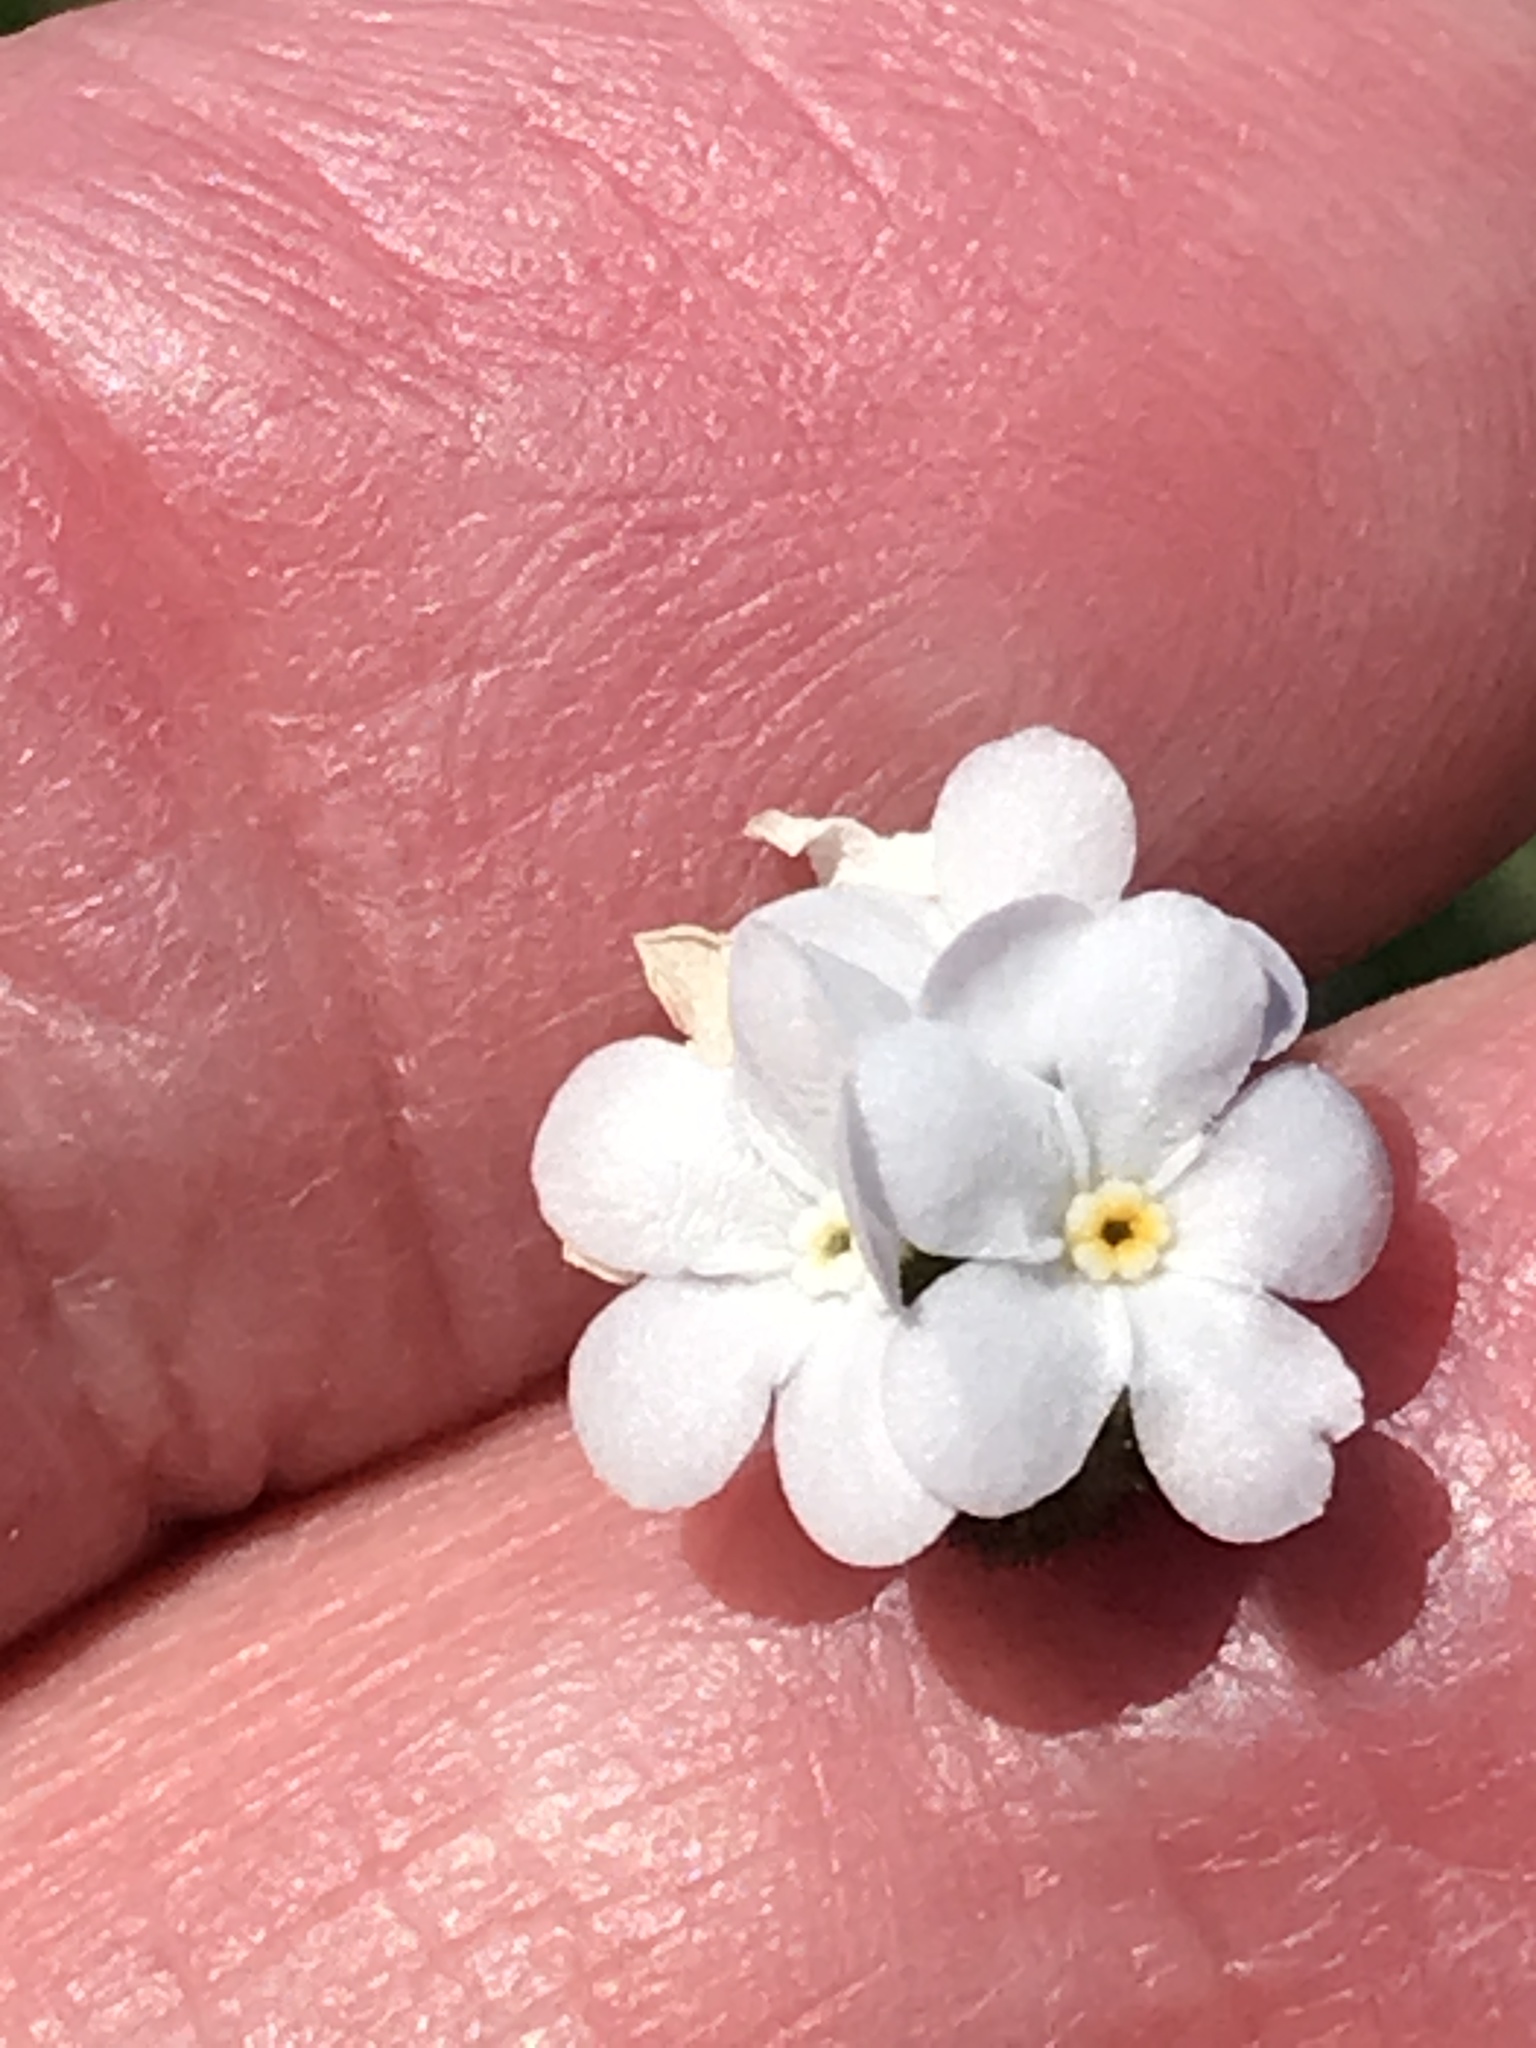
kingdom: Plantae
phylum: Tracheophyta
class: Magnoliopsida
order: Boraginales
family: Boraginaceae
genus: Plagiobothrys
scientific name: Plagiobothrys nothofulvus
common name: Popcorn-flower
